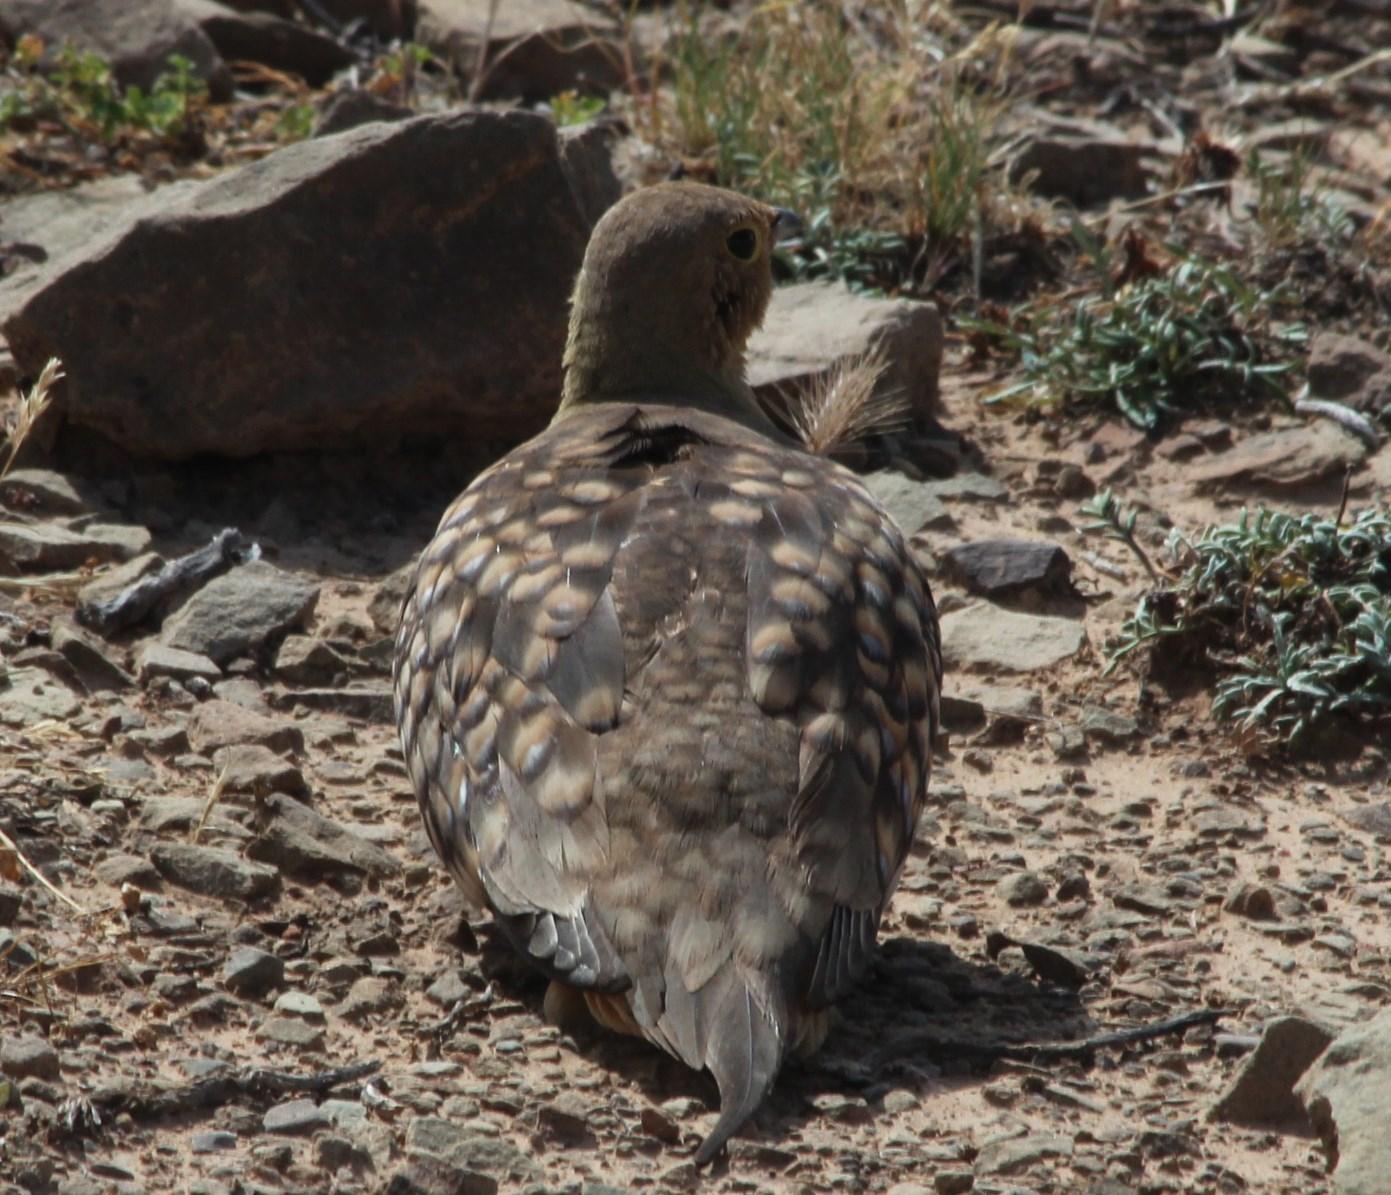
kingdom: Animalia
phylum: Chordata
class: Aves
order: Pteroclidiformes
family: Pteroclididae
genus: Pterocles
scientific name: Pterocles namaqua
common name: Namaqua sandgrouse
